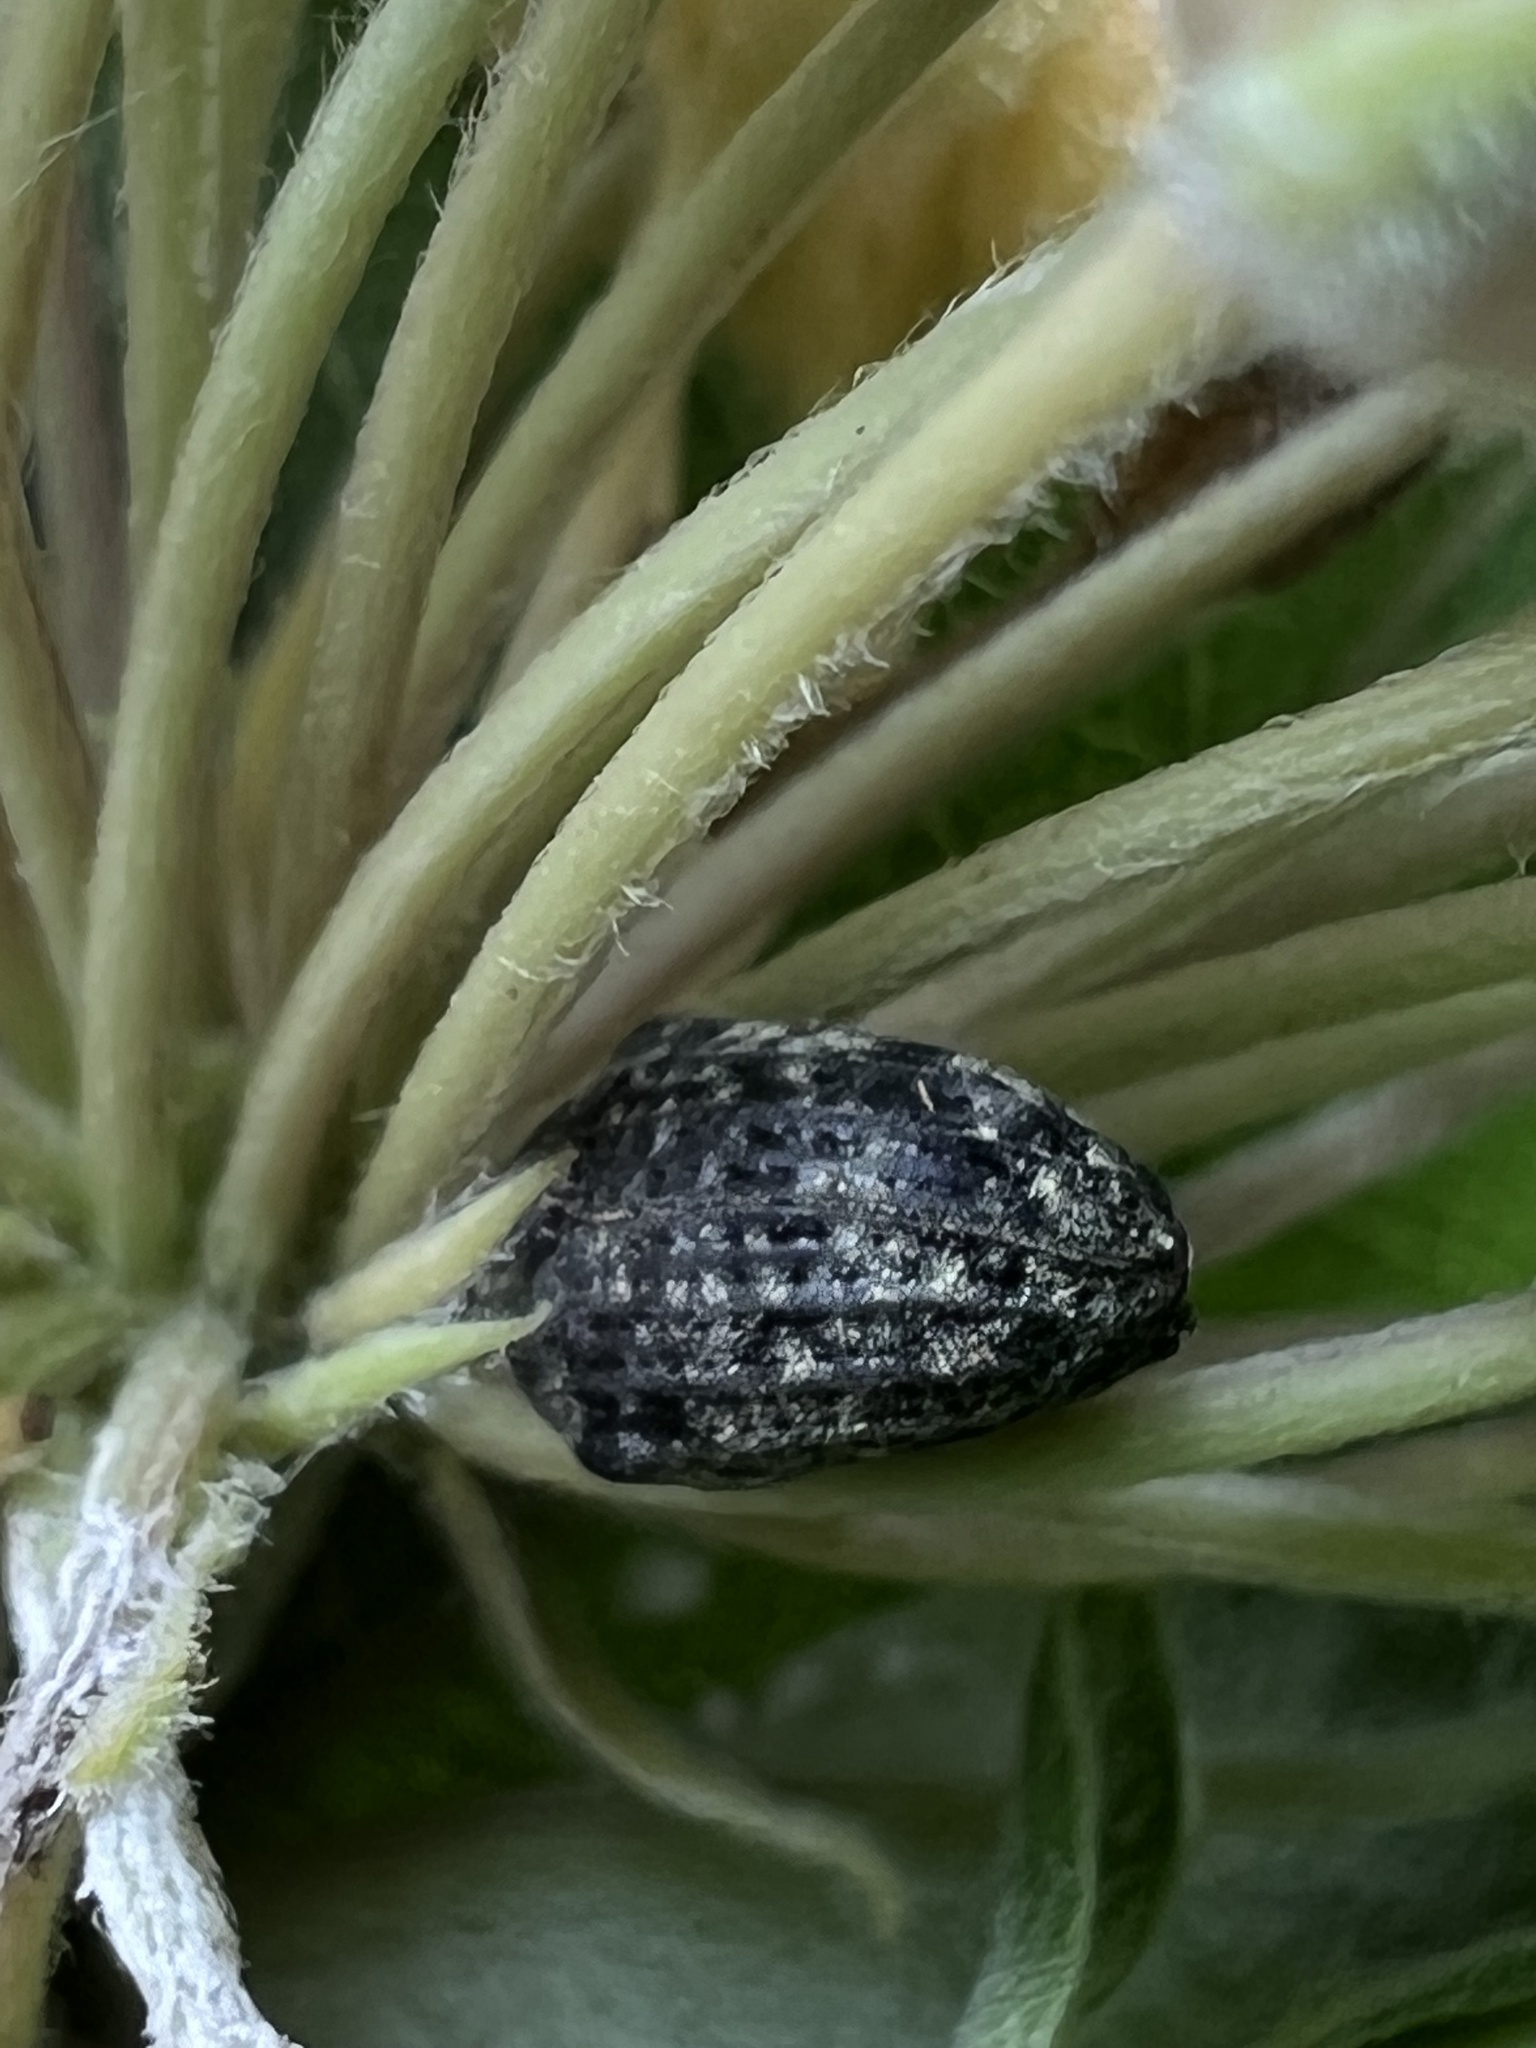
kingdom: Animalia
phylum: Arthropoda
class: Insecta
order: Coleoptera
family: Curculionidae
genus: Rhyssomatus
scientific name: Rhyssomatus lineaticollis
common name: Milkweed stem weevil
